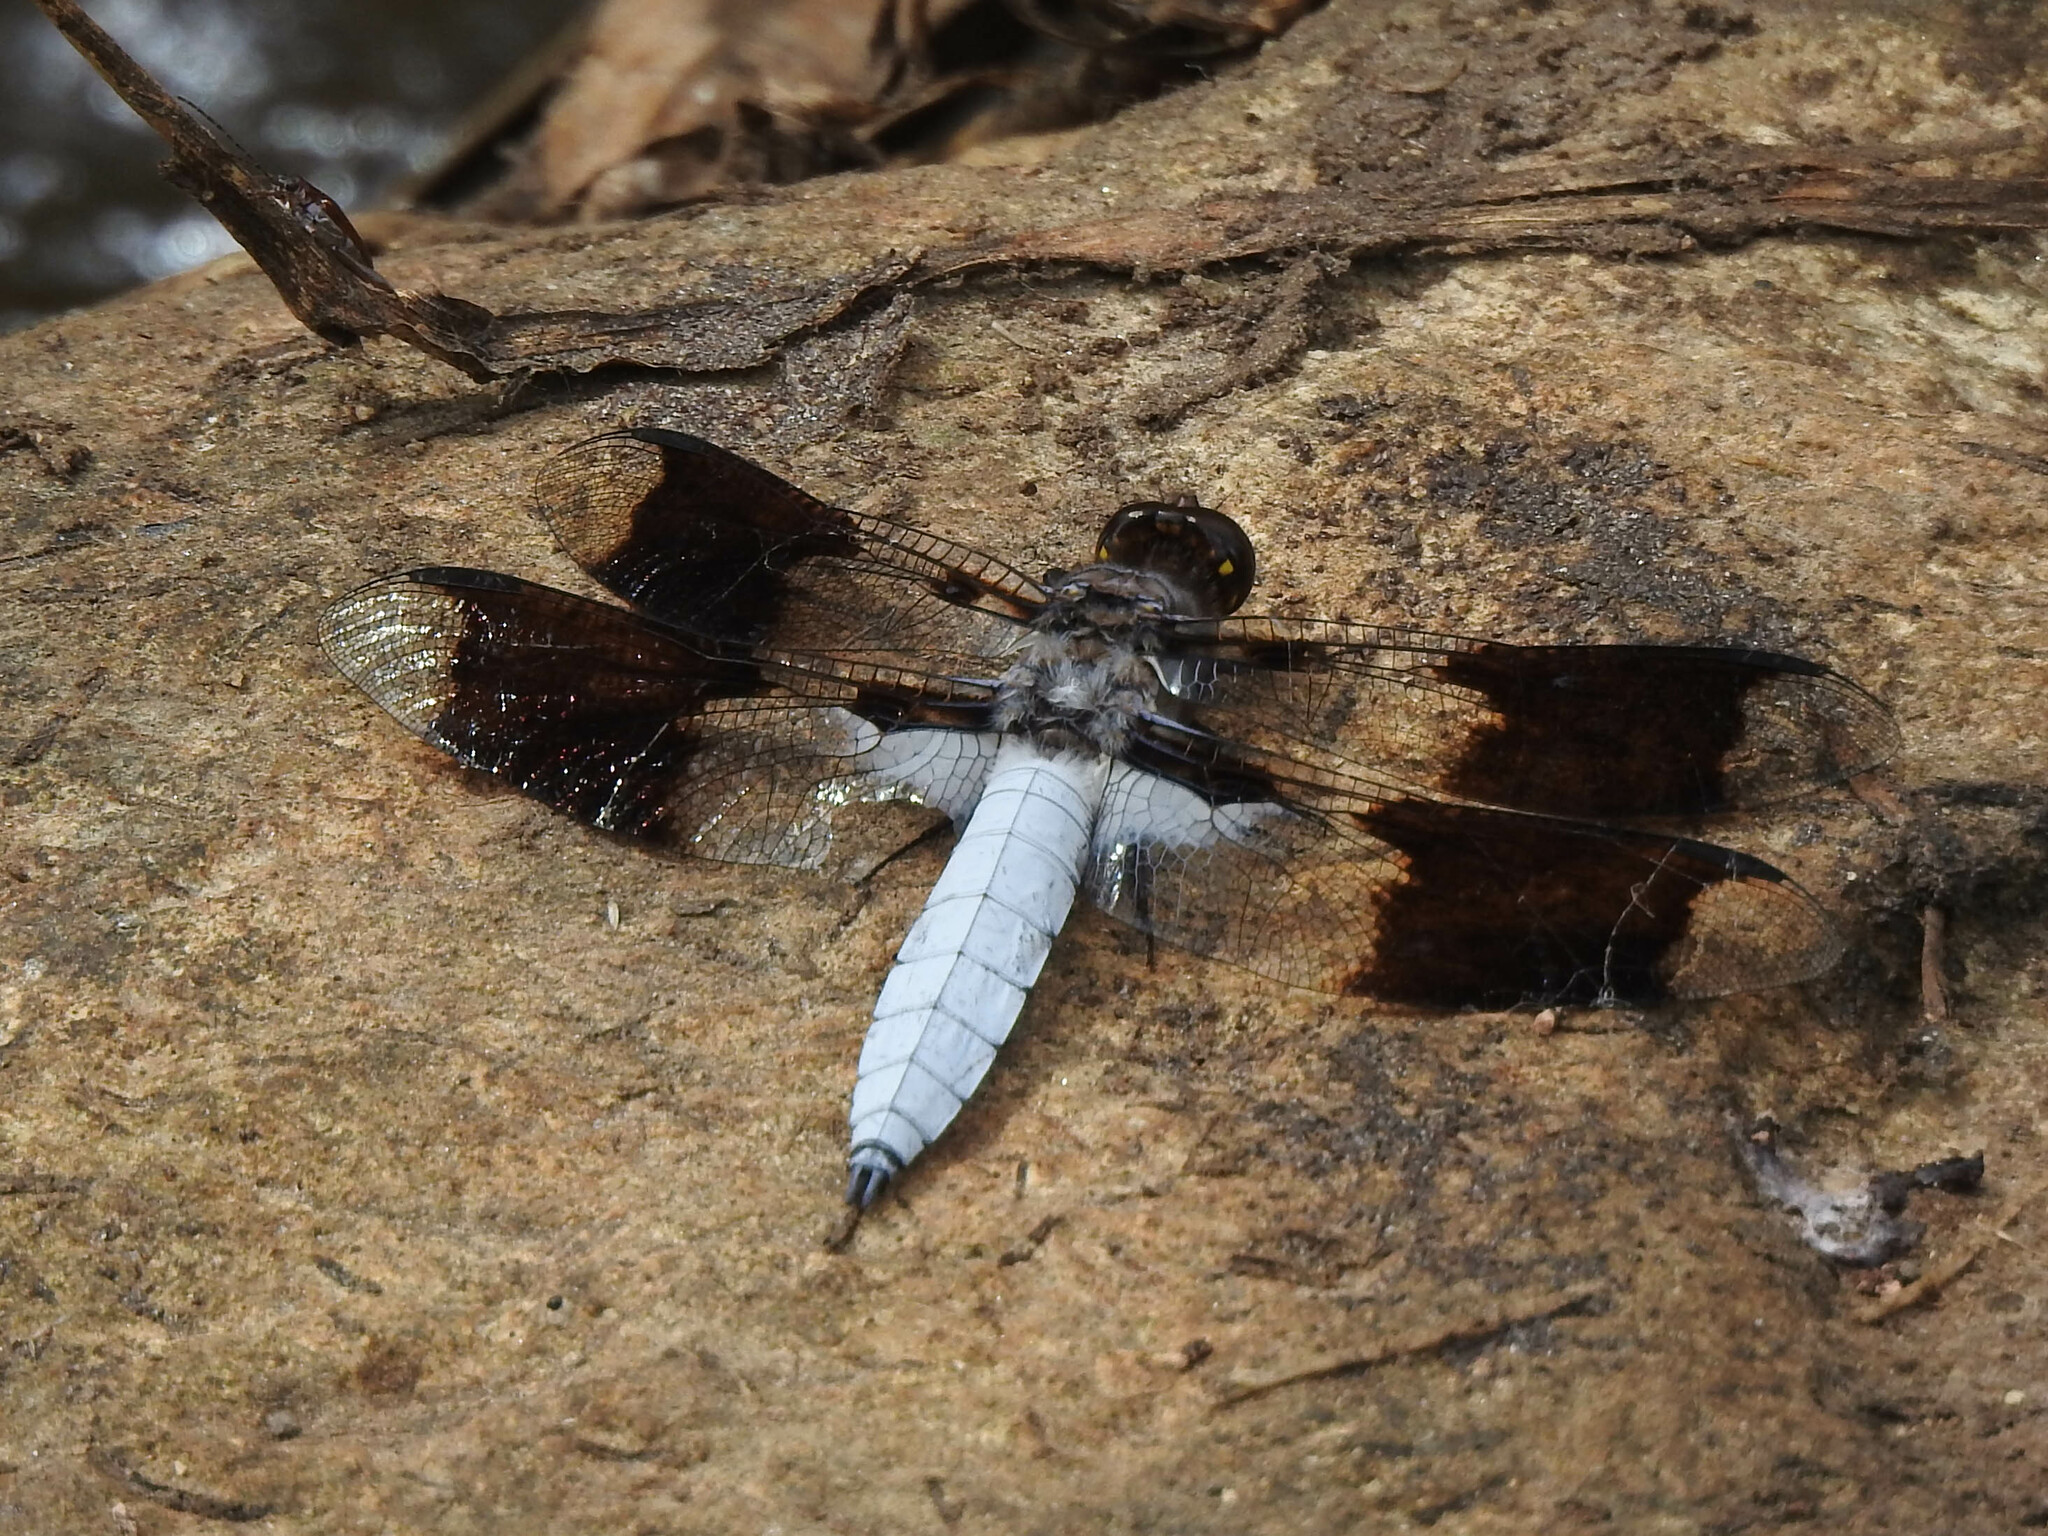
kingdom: Animalia
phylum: Arthropoda
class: Insecta
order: Odonata
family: Libellulidae
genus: Plathemis
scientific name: Plathemis lydia
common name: Common whitetail
